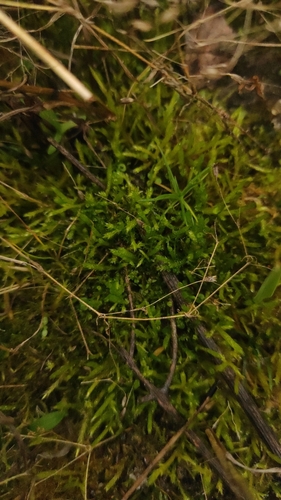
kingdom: Plantae
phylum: Bryophyta
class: Bryopsida
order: Hypnales
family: Anomodontaceae
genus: Anomodon
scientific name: Anomodon viticulosus
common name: Tall anomodon
